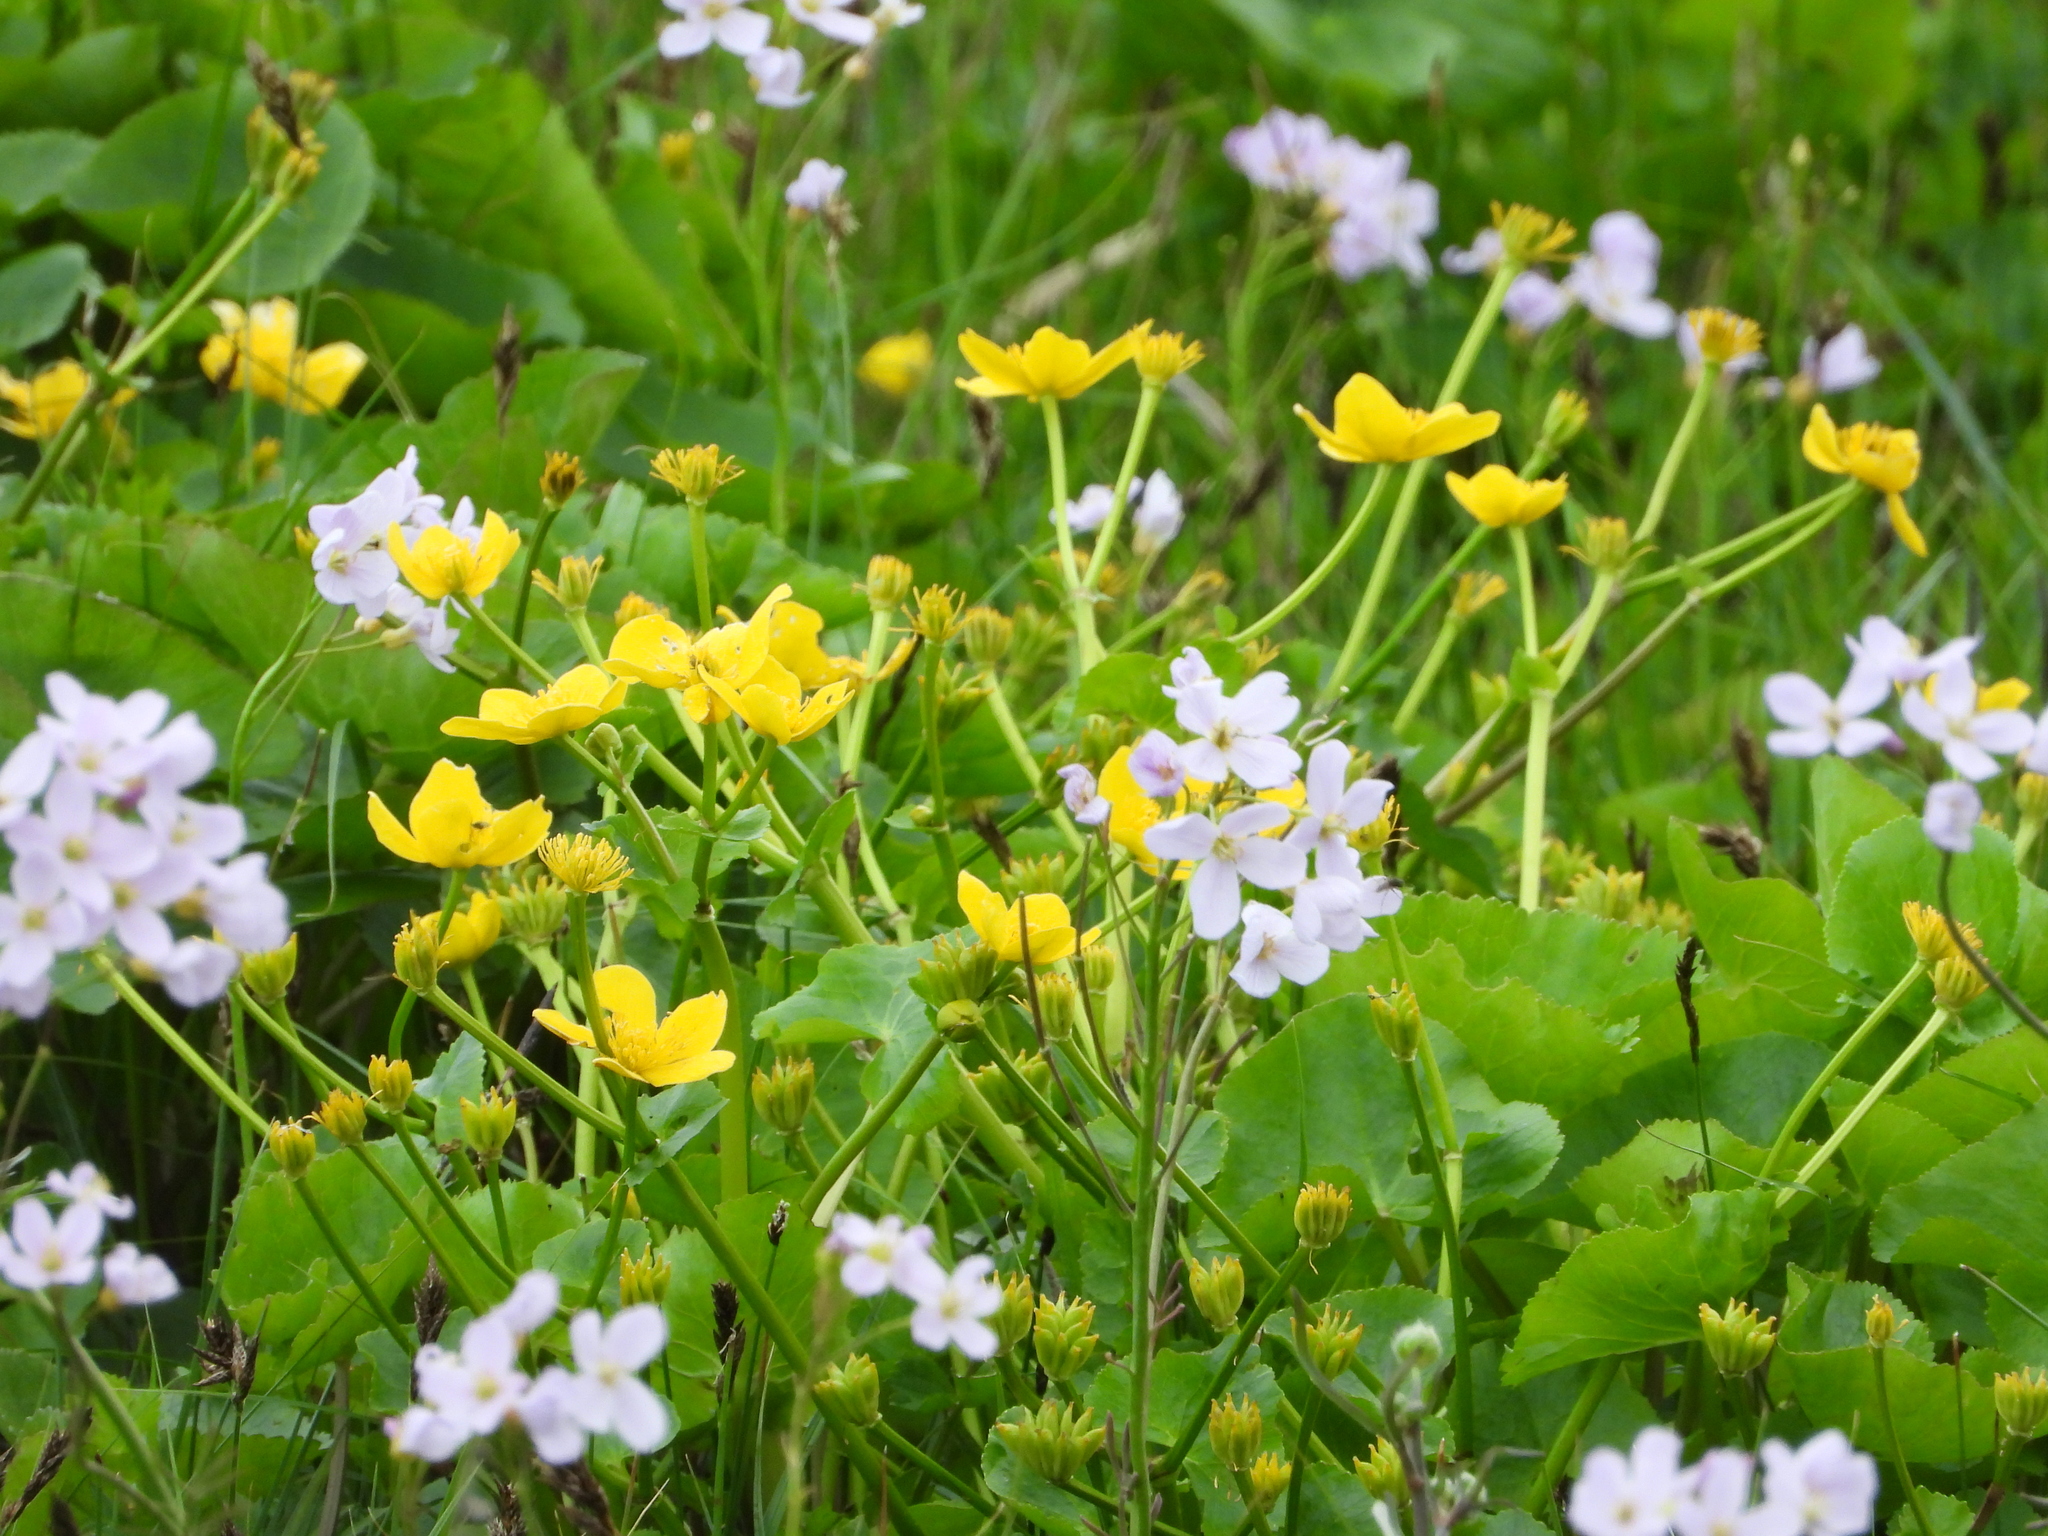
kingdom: Plantae
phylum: Tracheophyta
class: Magnoliopsida
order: Ranunculales
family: Ranunculaceae
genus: Caltha
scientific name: Caltha palustris
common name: Marsh marigold
